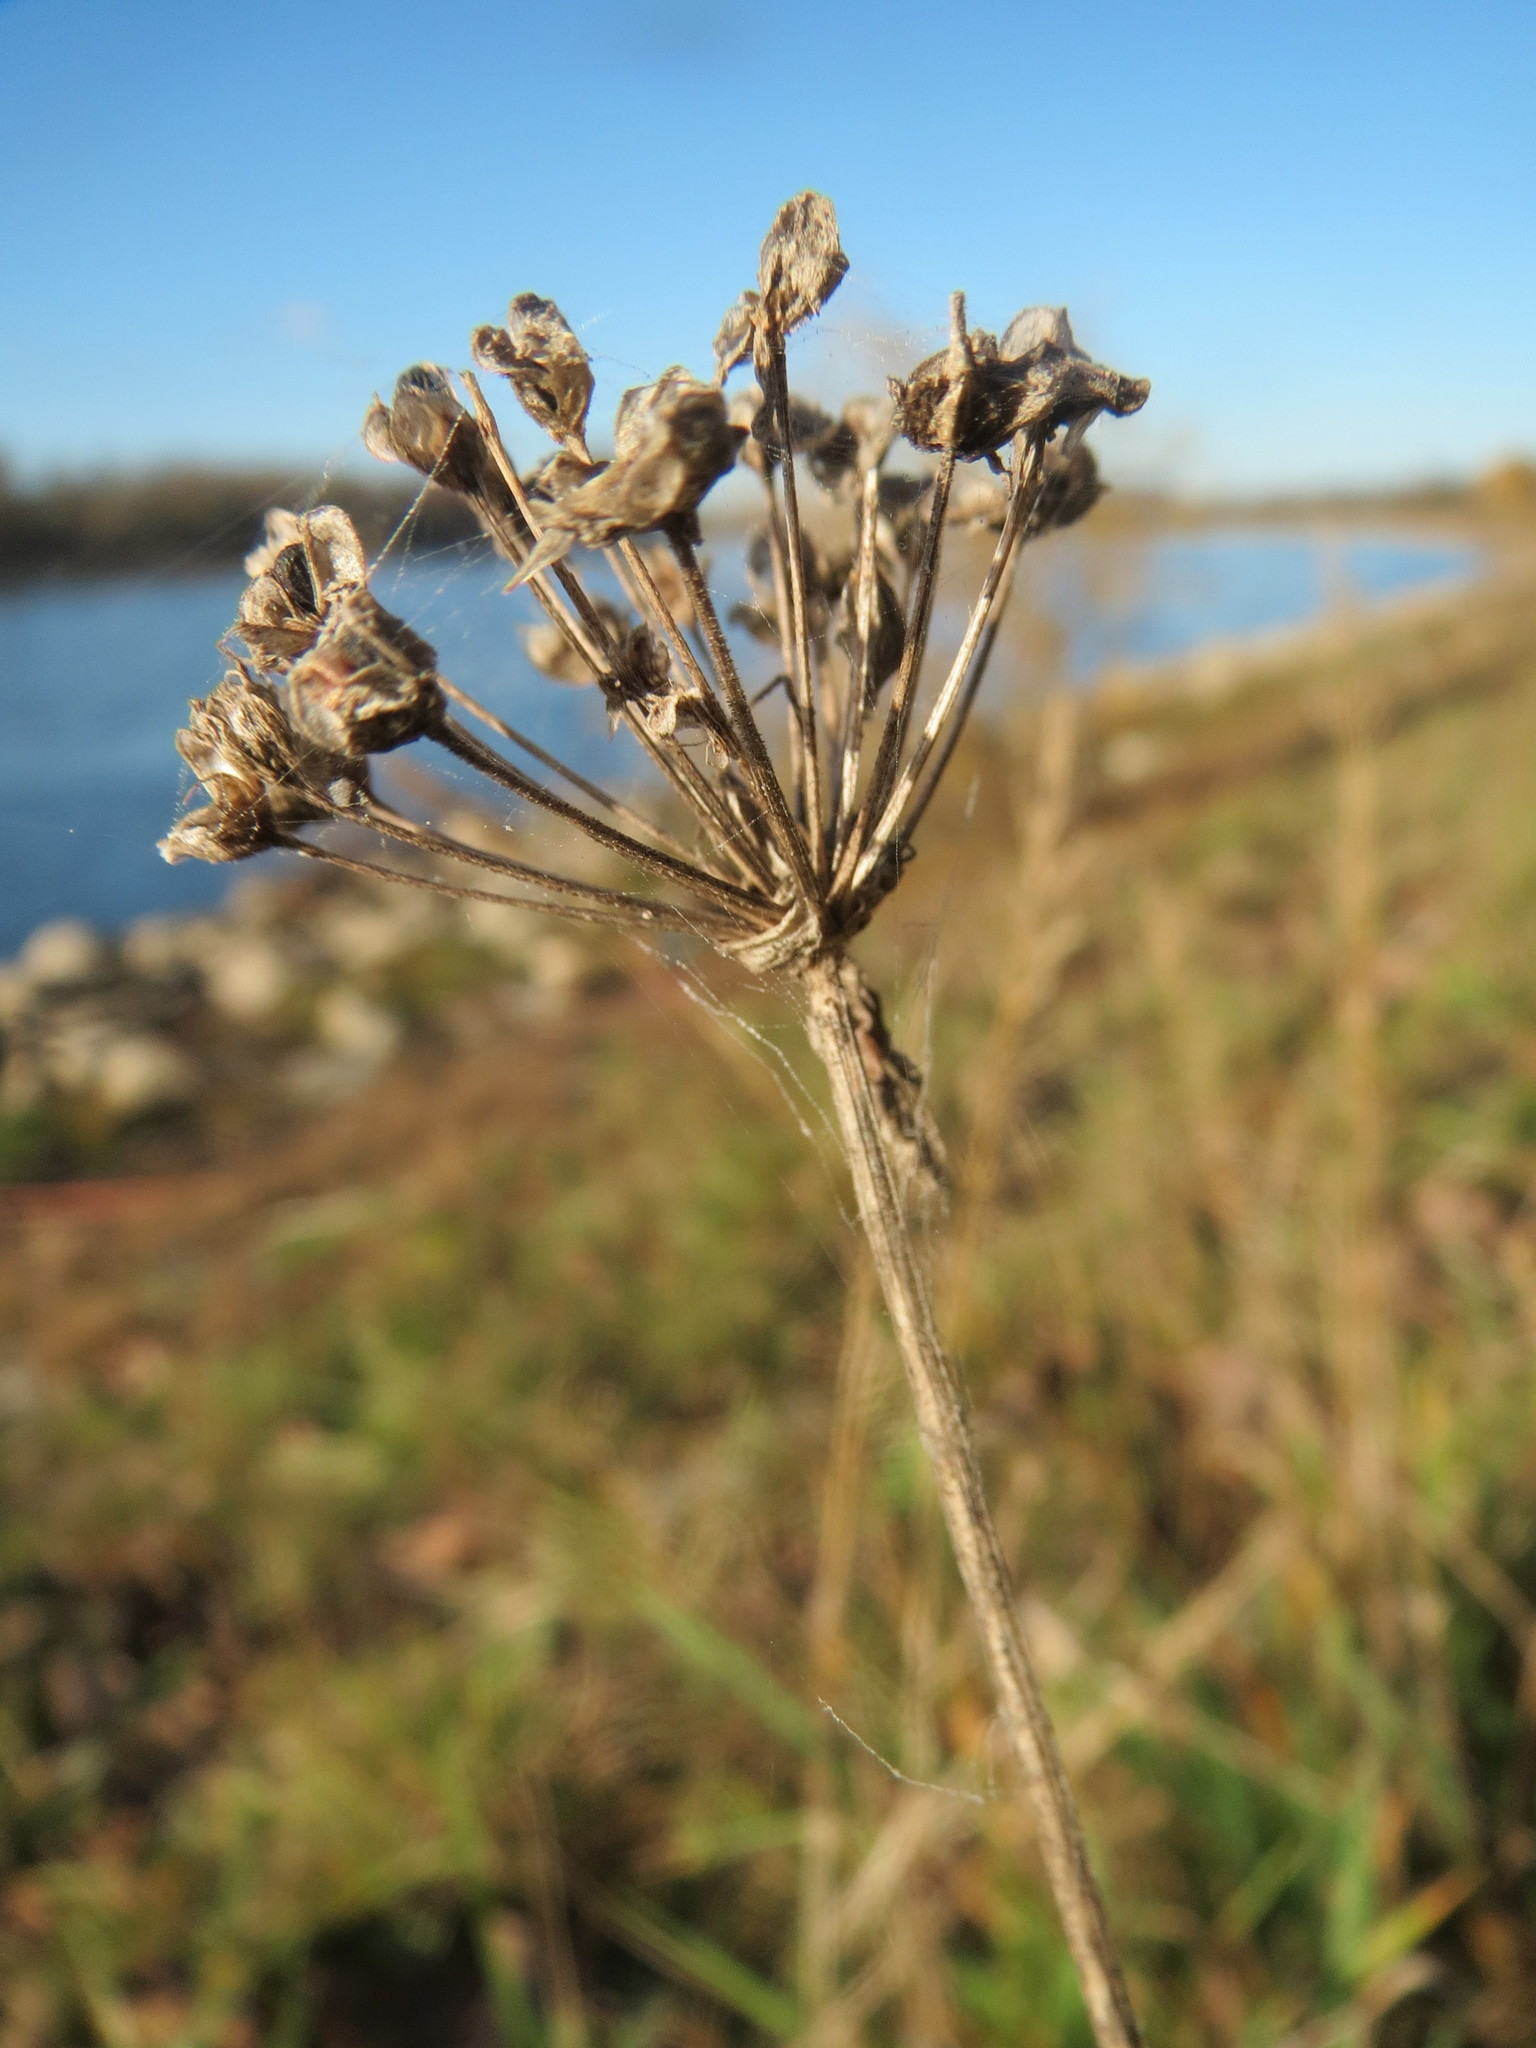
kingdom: Plantae
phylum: Tracheophyta
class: Liliopsida
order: Asparagales
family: Amaryllidaceae
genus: Allium
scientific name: Allium angulosum
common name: Mouse garlic
